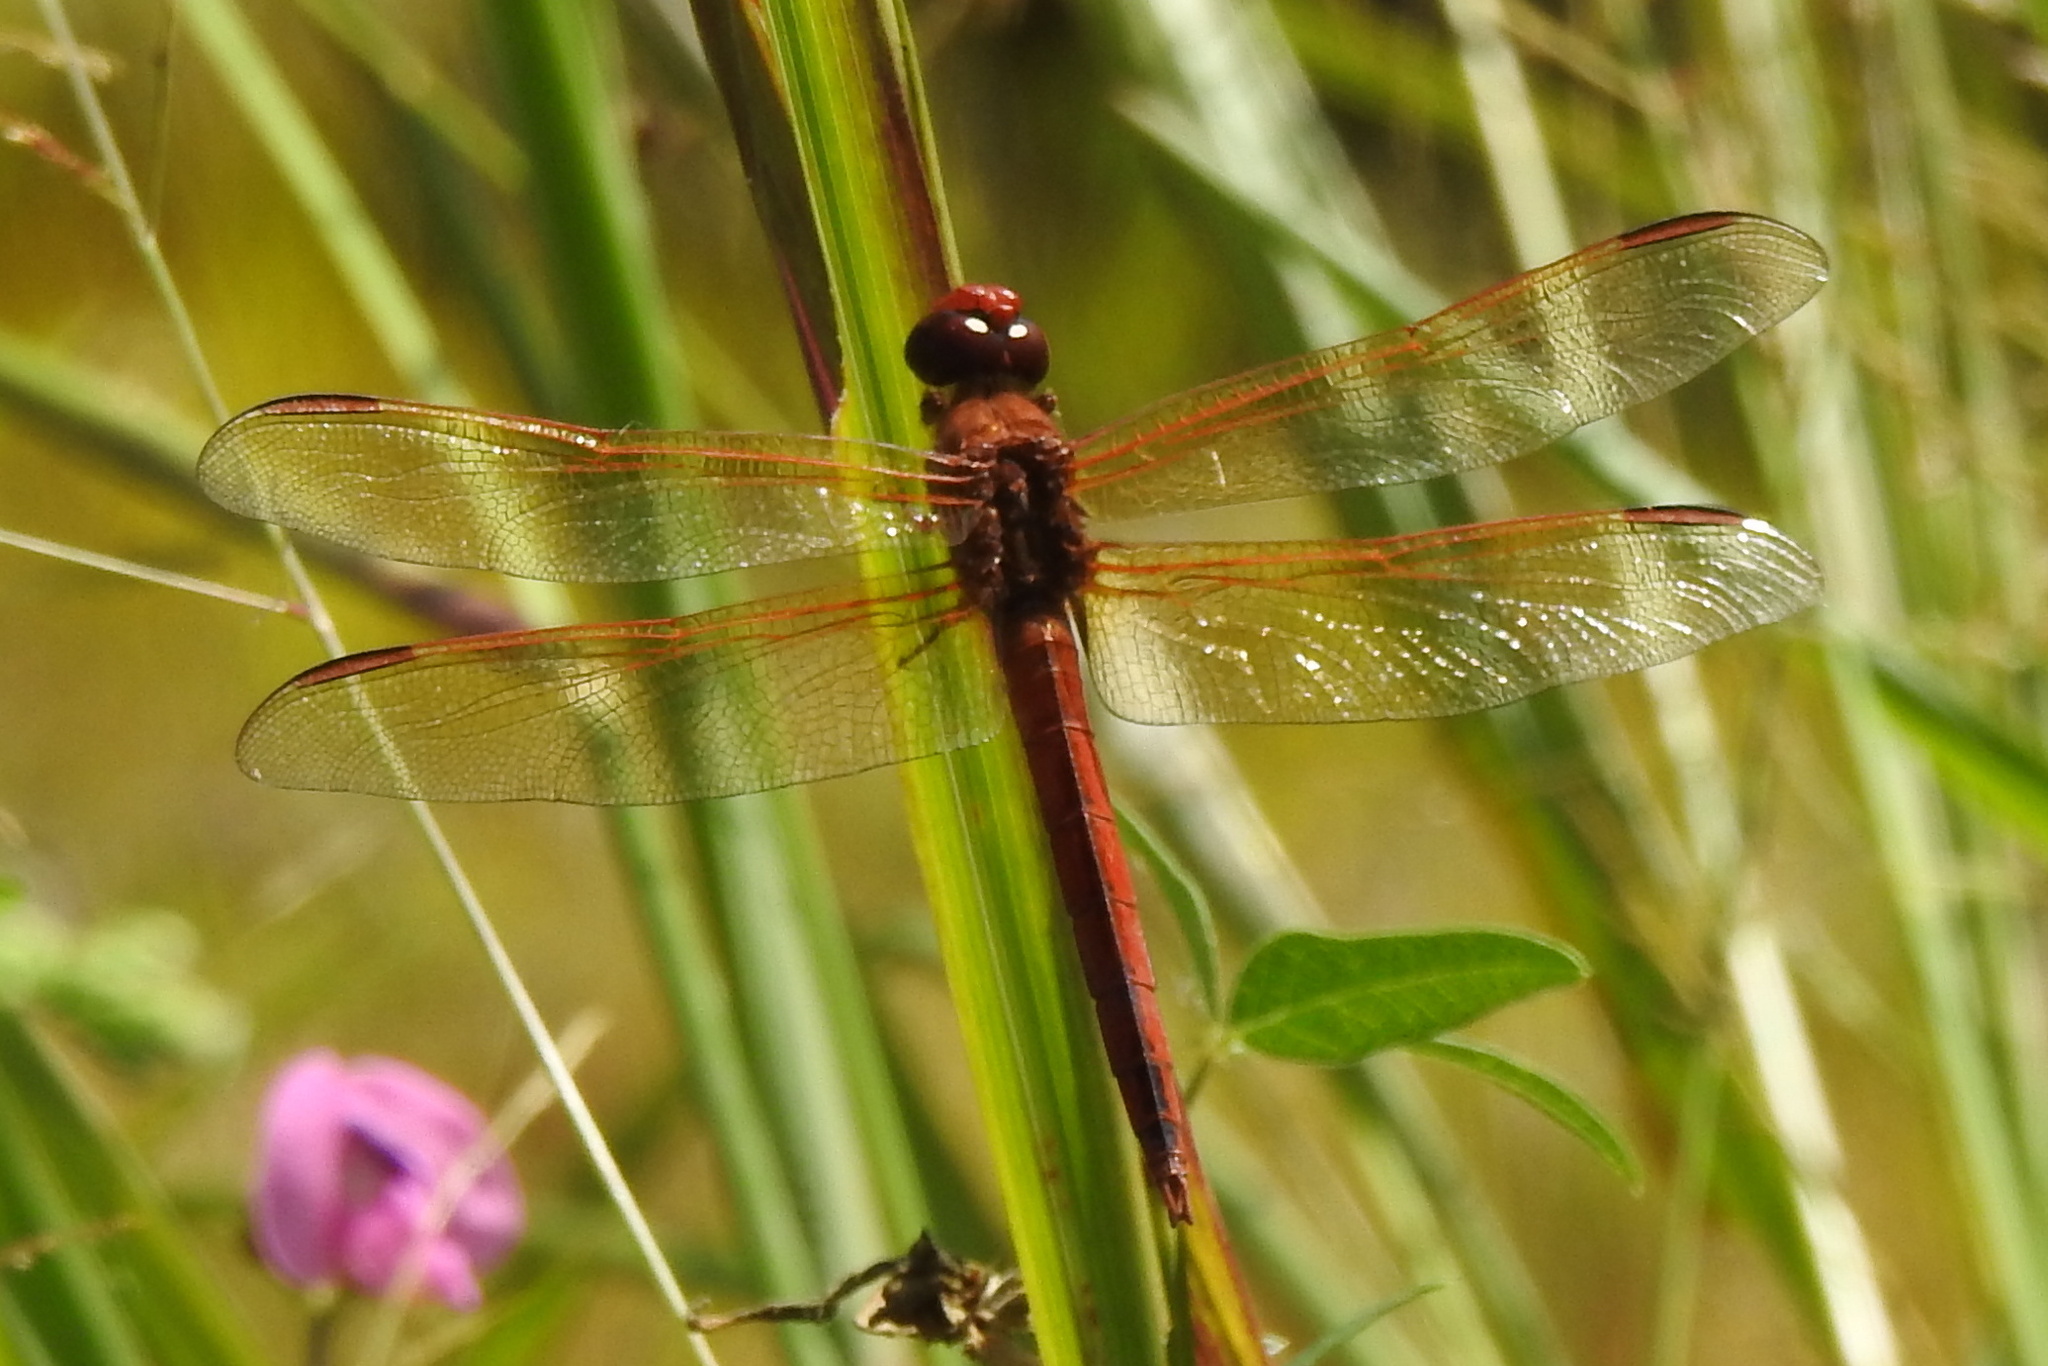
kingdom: Animalia
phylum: Arthropoda
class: Insecta
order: Odonata
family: Libellulidae
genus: Libellula
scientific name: Libellula needhami
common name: Needham's skimmer
